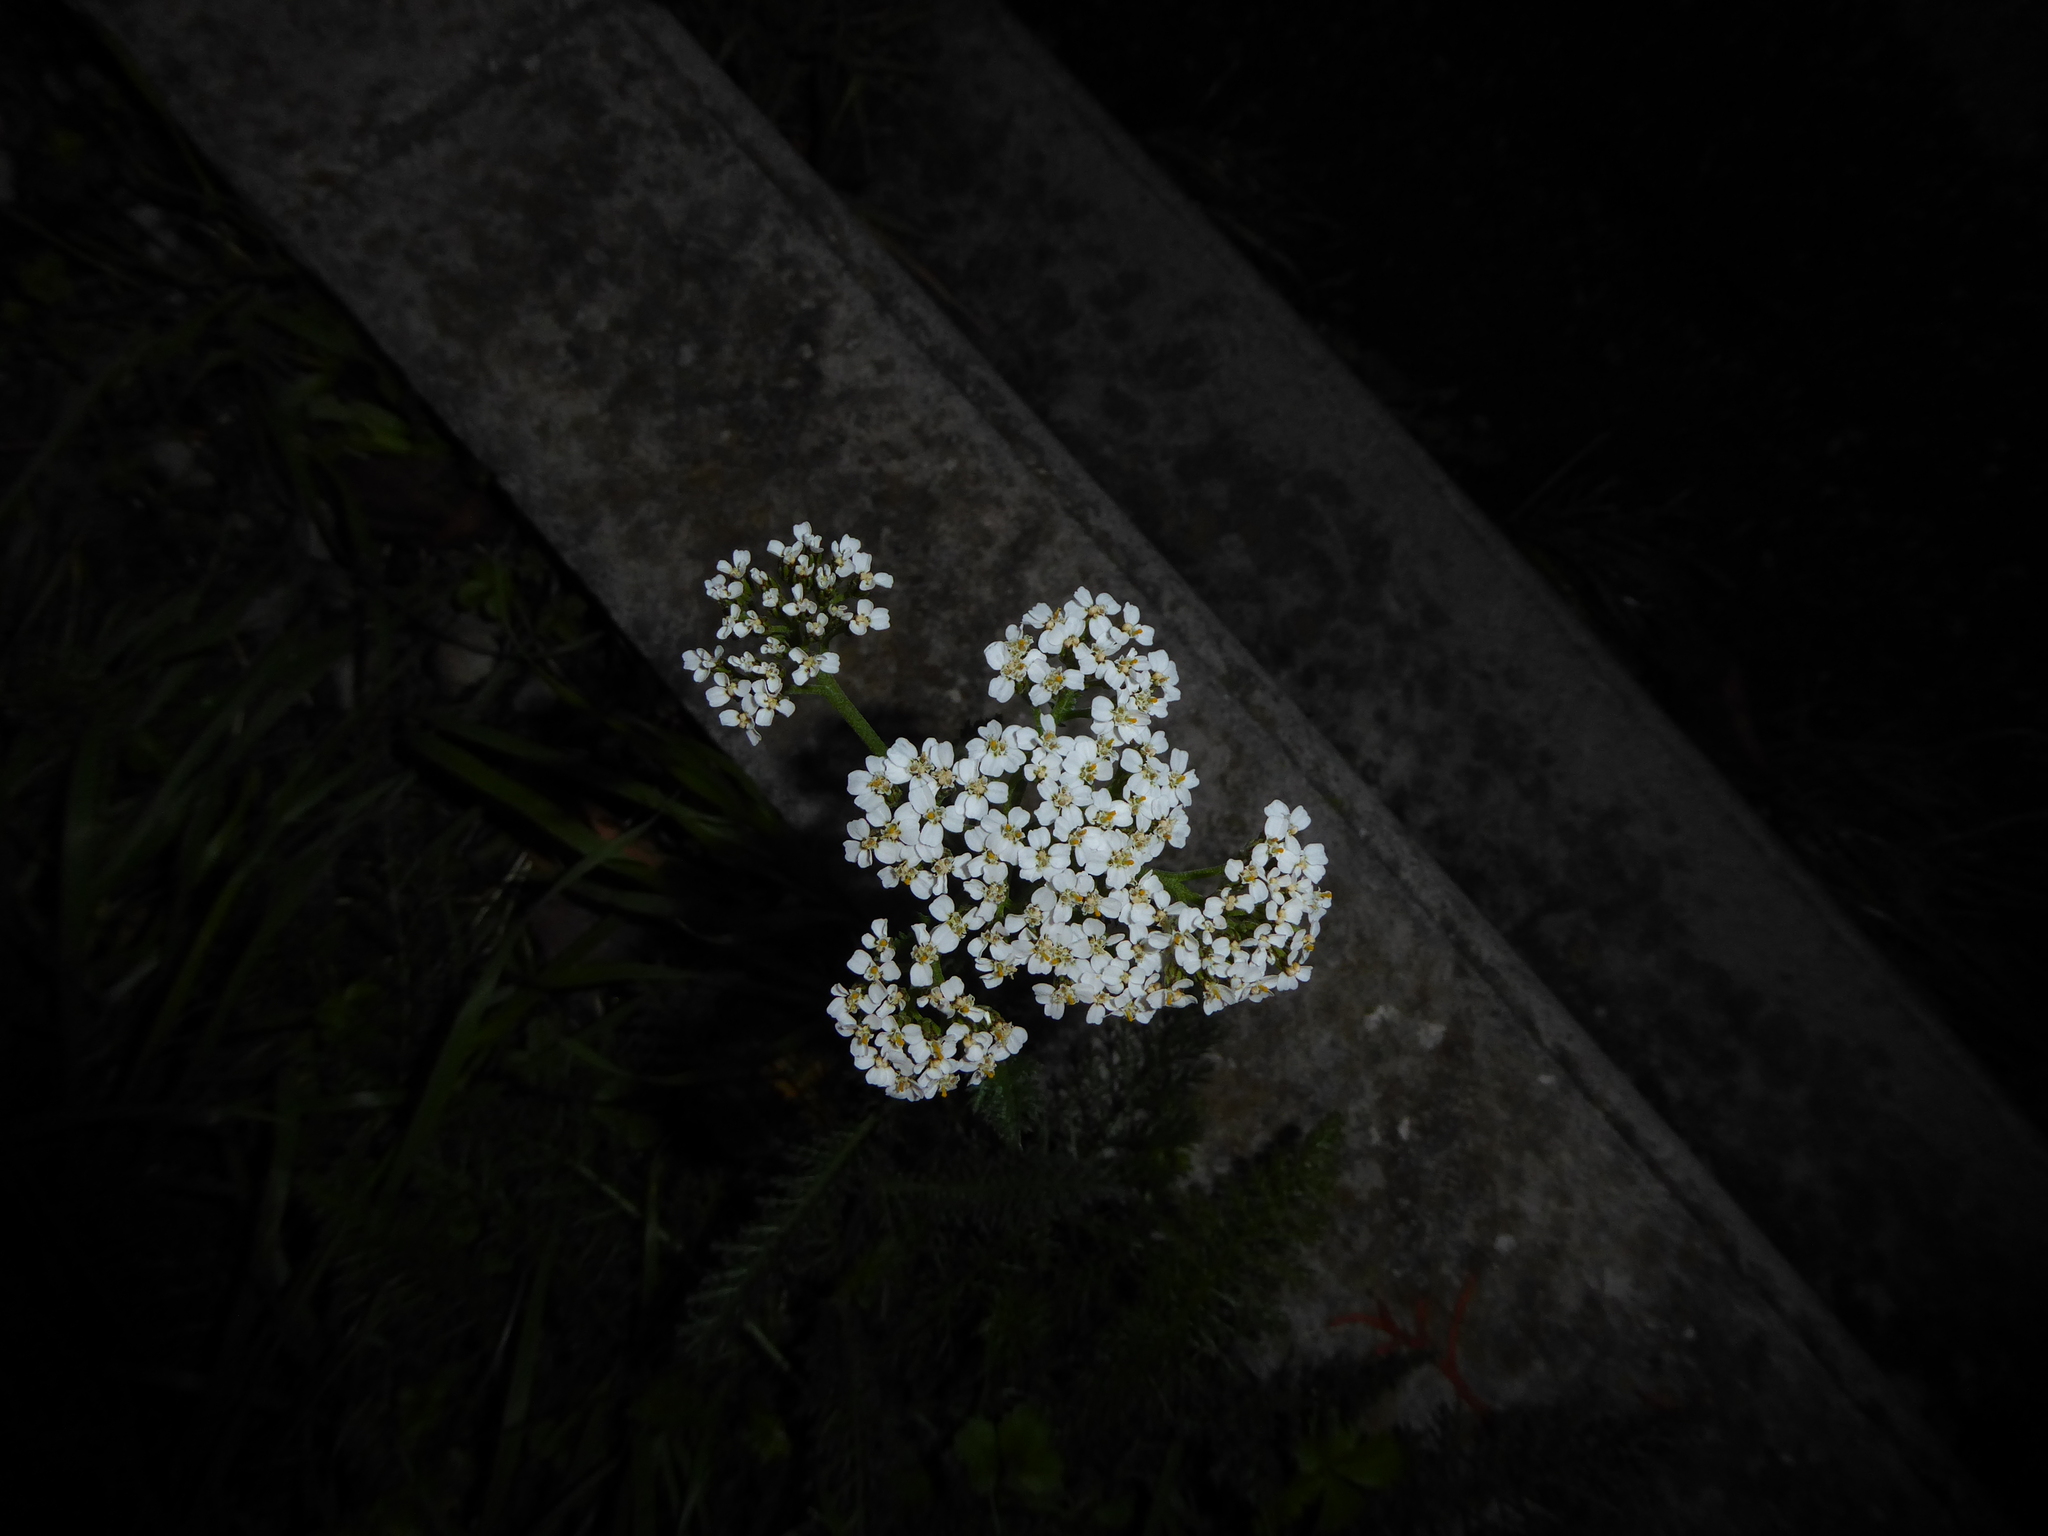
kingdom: Plantae
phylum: Tracheophyta
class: Magnoliopsida
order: Asterales
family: Asteraceae
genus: Achillea
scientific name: Achillea millefolium
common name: Yarrow
